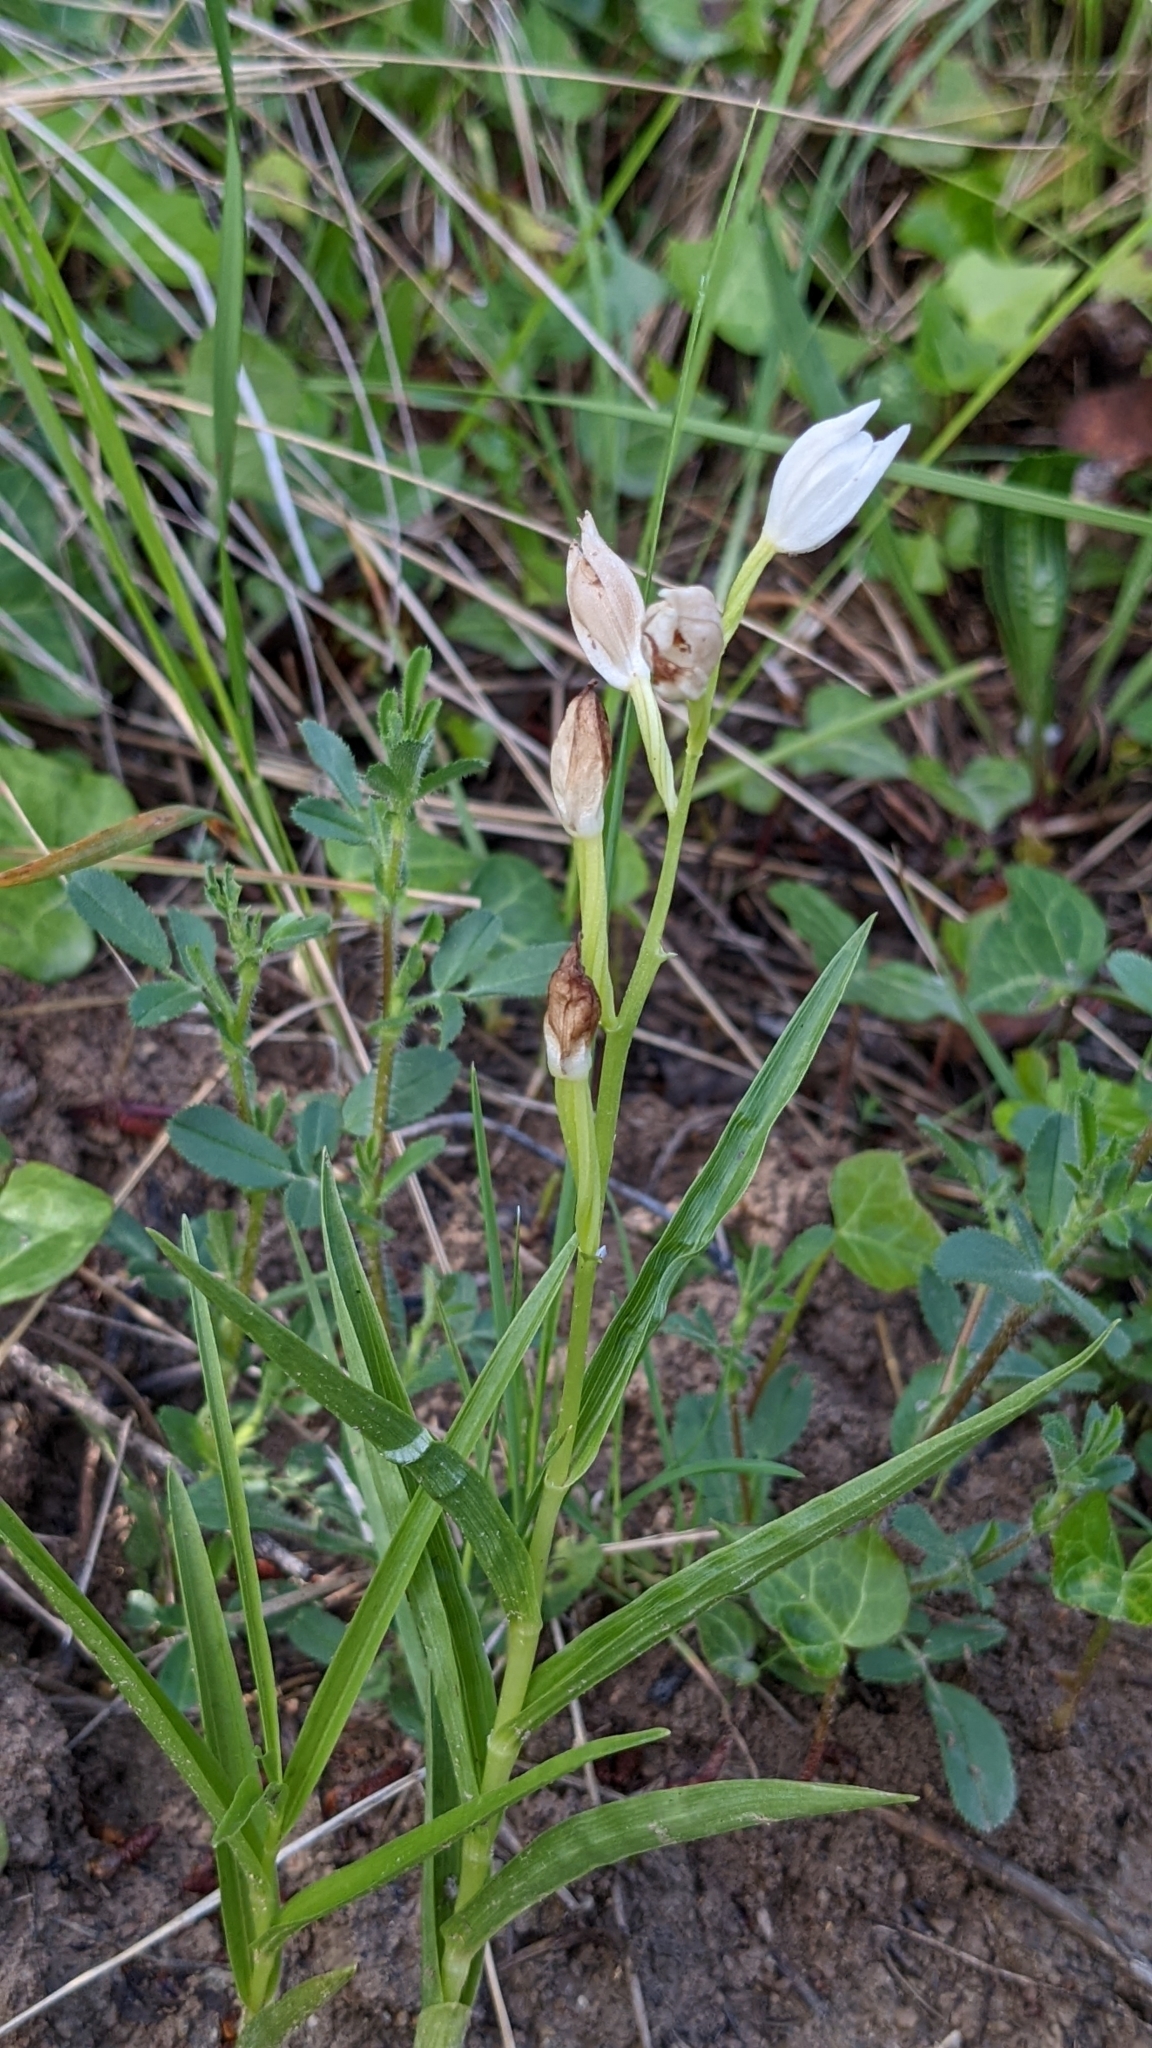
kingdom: Plantae
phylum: Tracheophyta
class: Liliopsida
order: Asparagales
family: Orchidaceae
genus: Cephalanthera
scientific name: Cephalanthera longifolia
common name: Narrow-leaved helleborine
